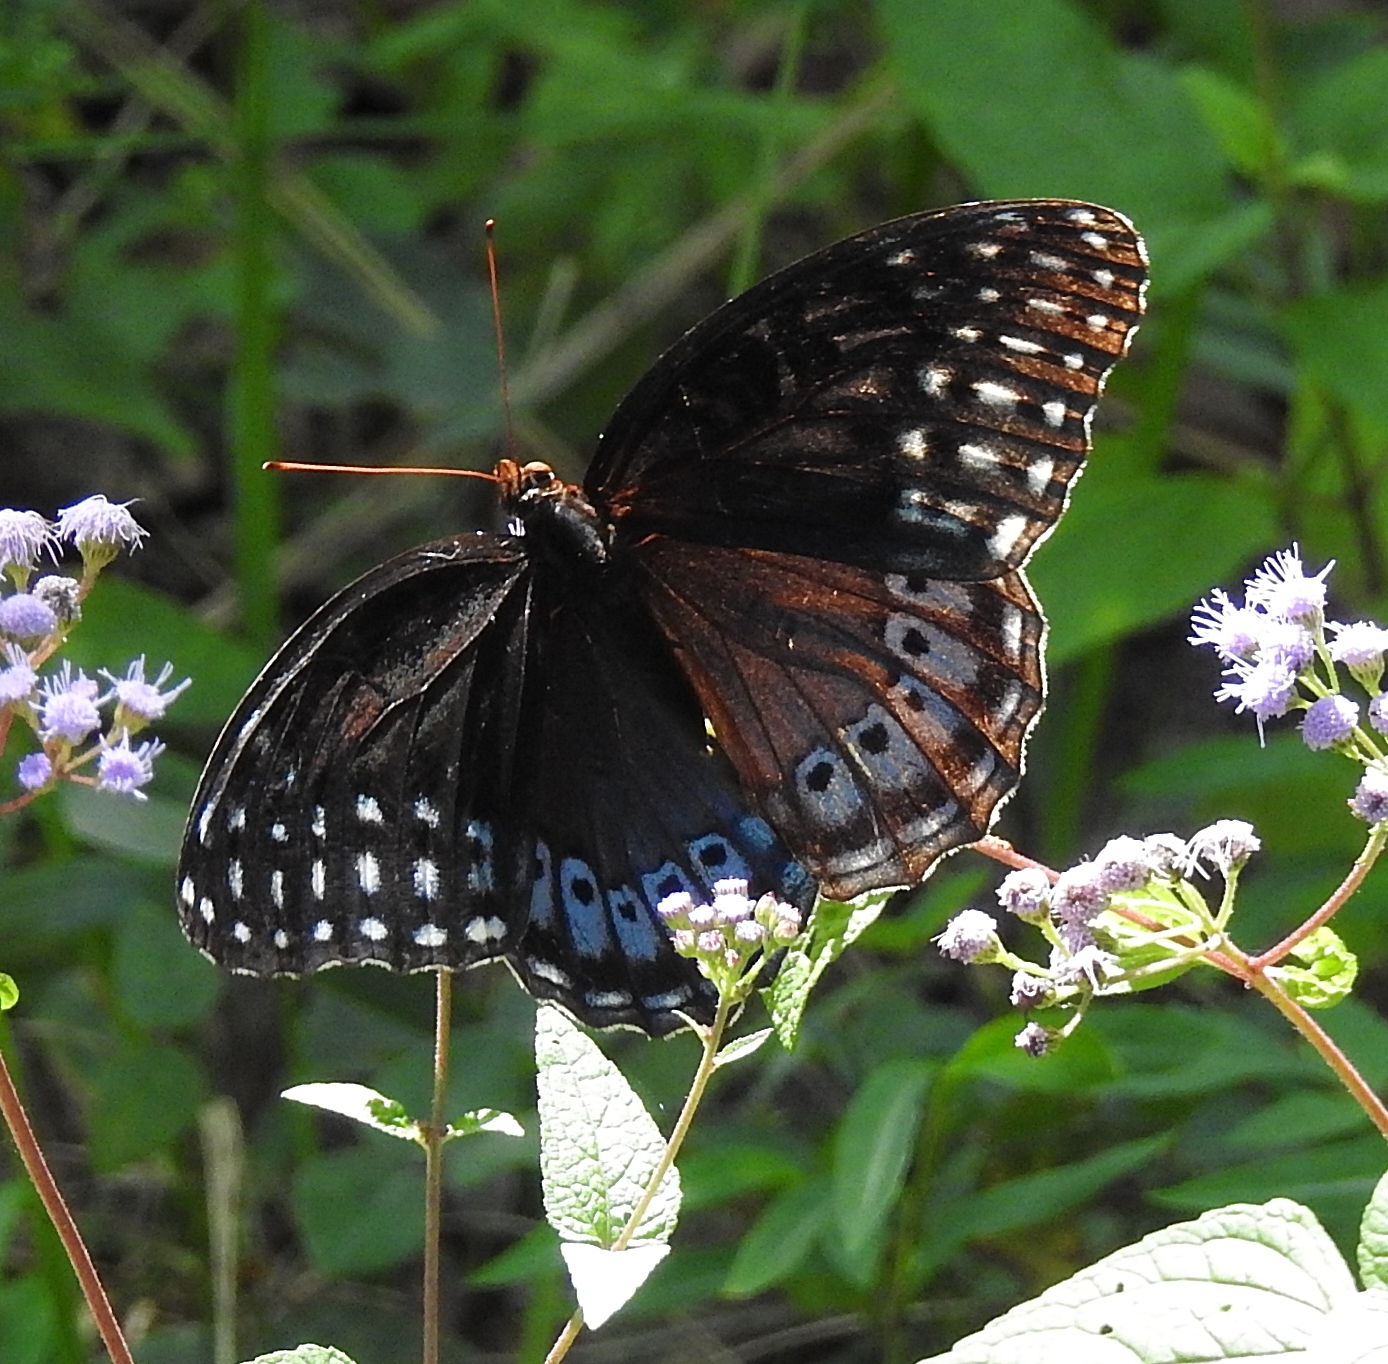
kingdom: Animalia
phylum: Arthropoda
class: Insecta
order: Lepidoptera
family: Nymphalidae
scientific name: Nymphalidae
